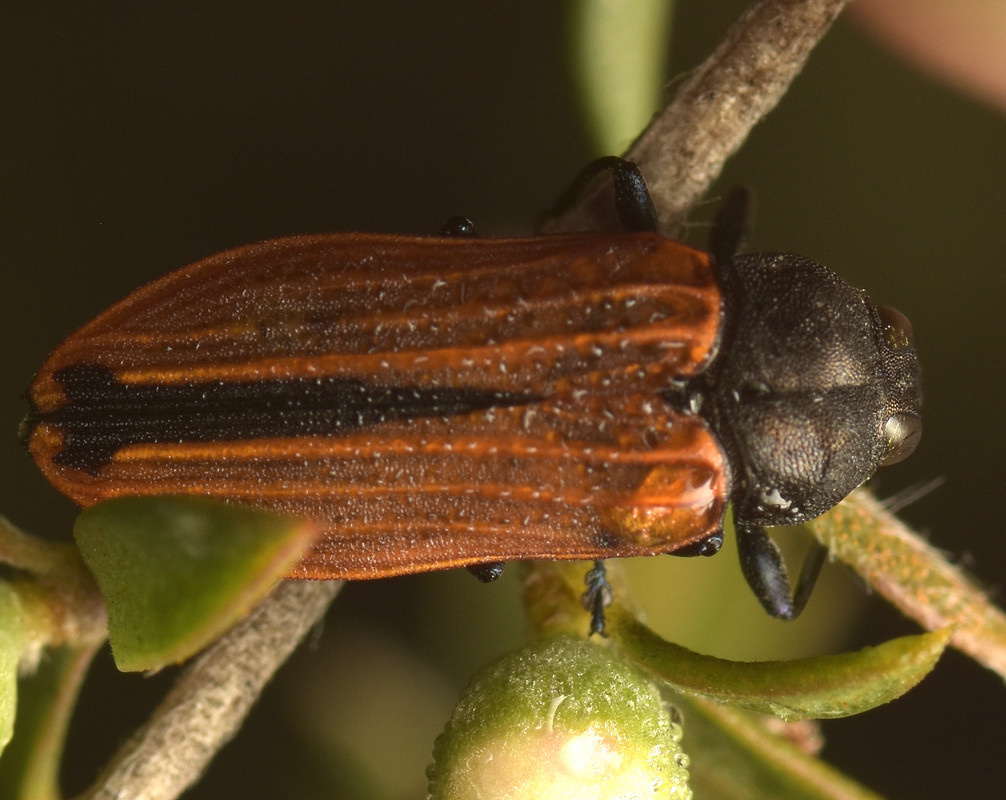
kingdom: Animalia
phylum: Arthropoda
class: Insecta
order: Coleoptera
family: Buprestidae
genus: Castiarina
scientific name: Castiarina erythroptera
